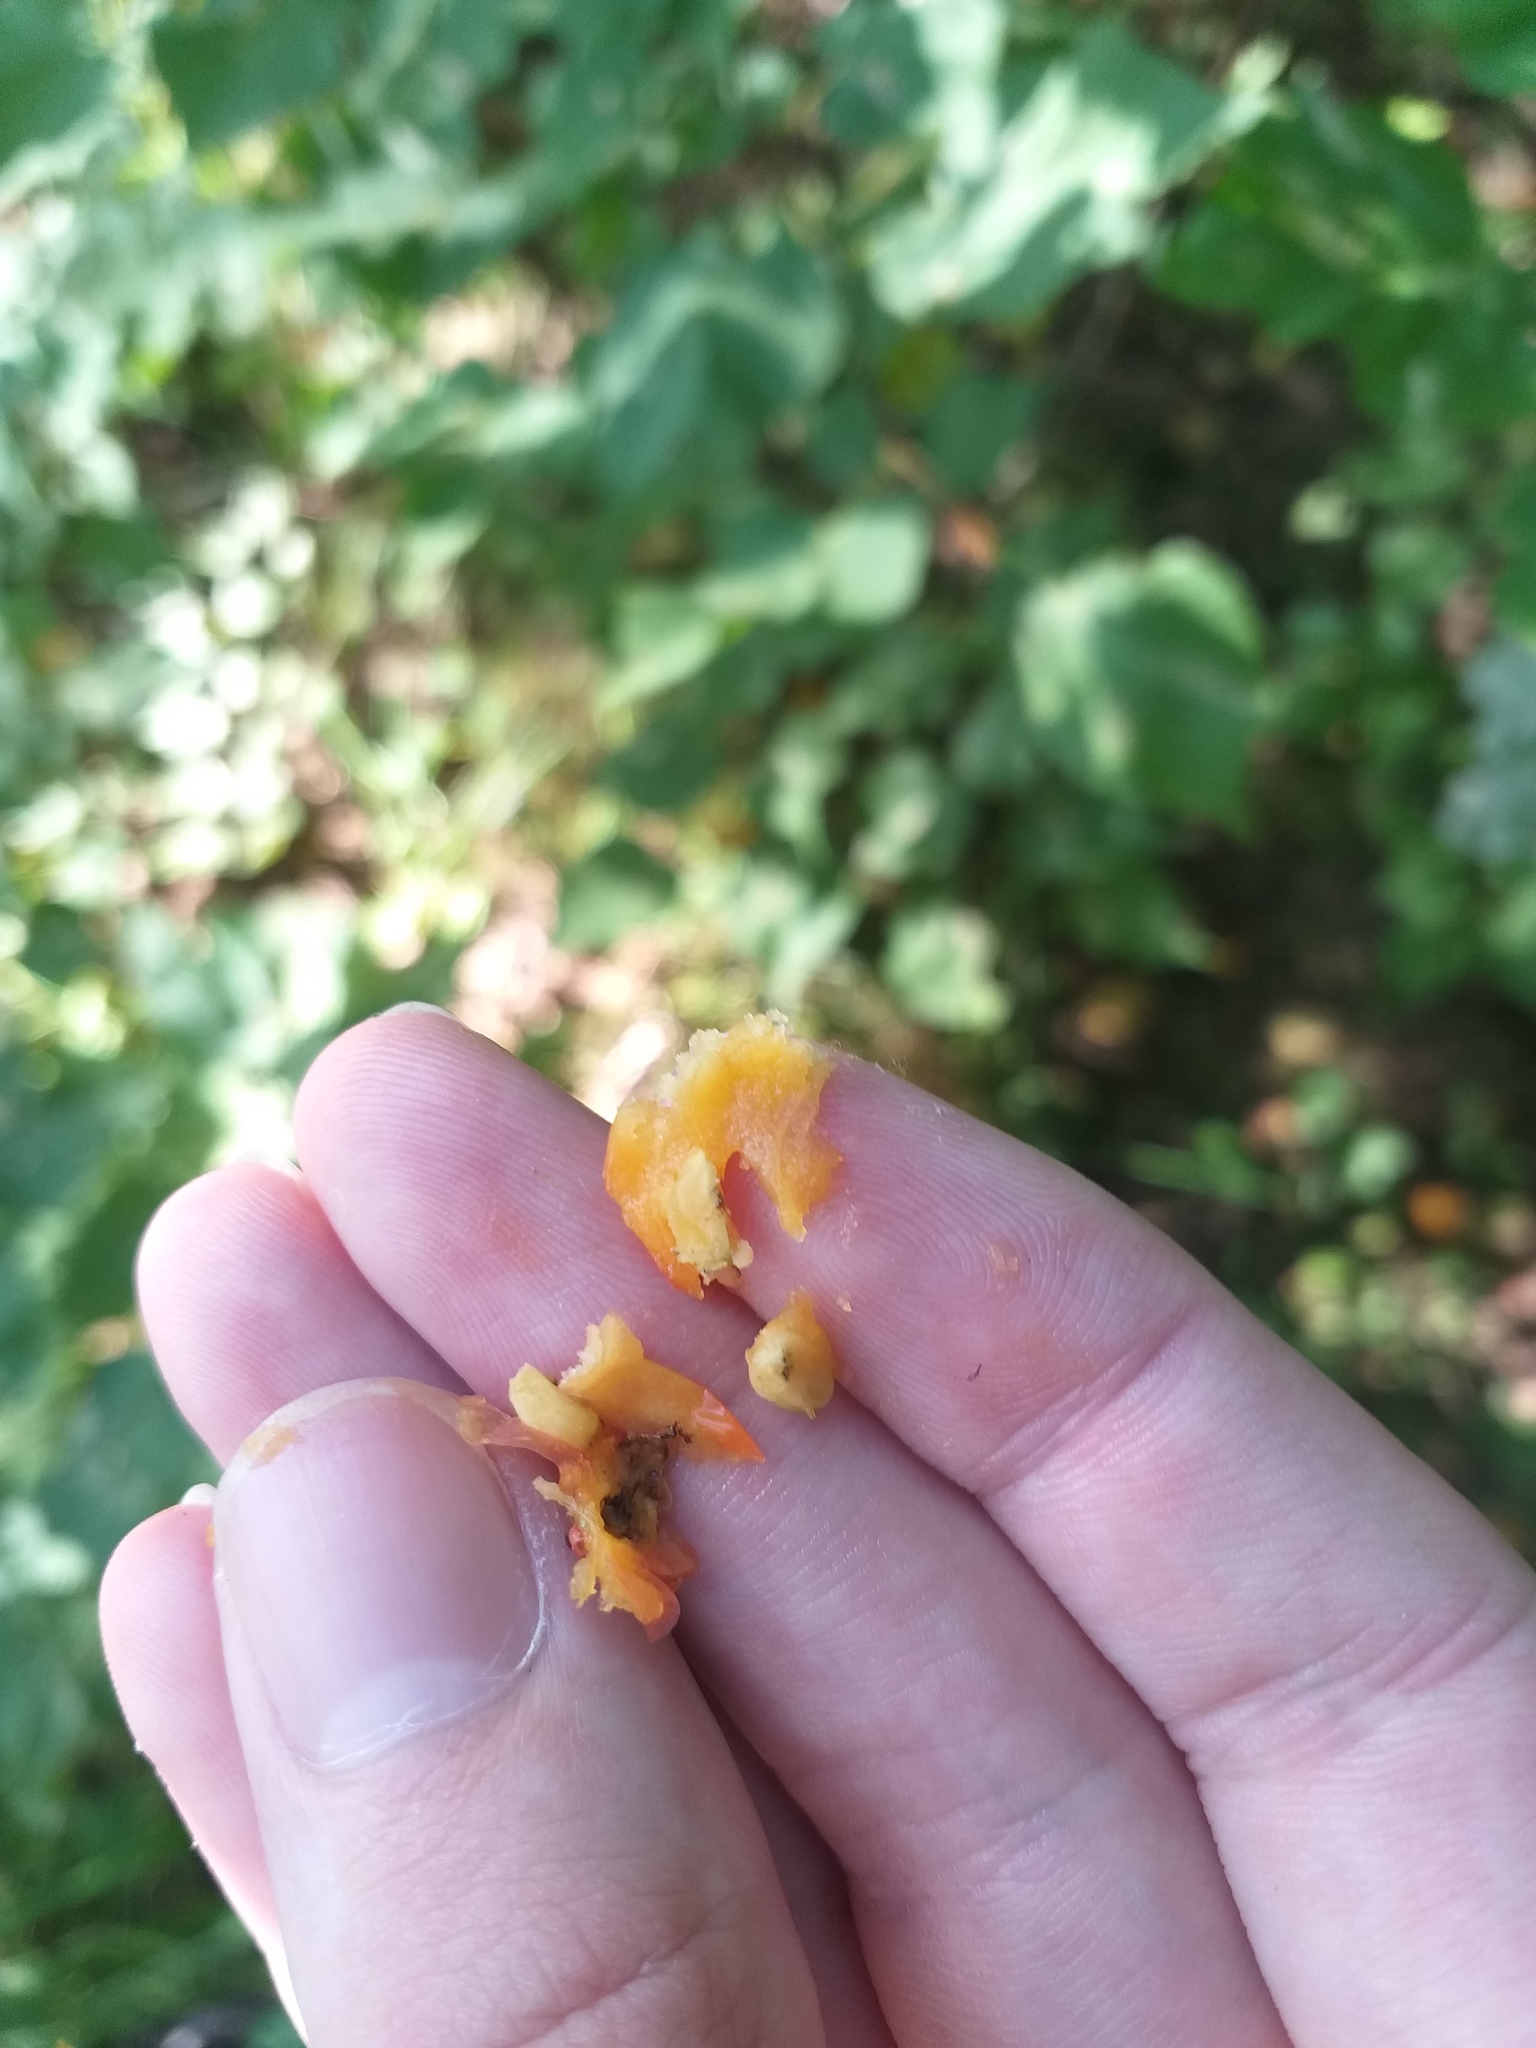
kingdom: Plantae
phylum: Tracheophyta
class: Magnoliopsida
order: Rosales
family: Rosaceae
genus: Crataegus
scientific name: Crataegus maximowiczii
